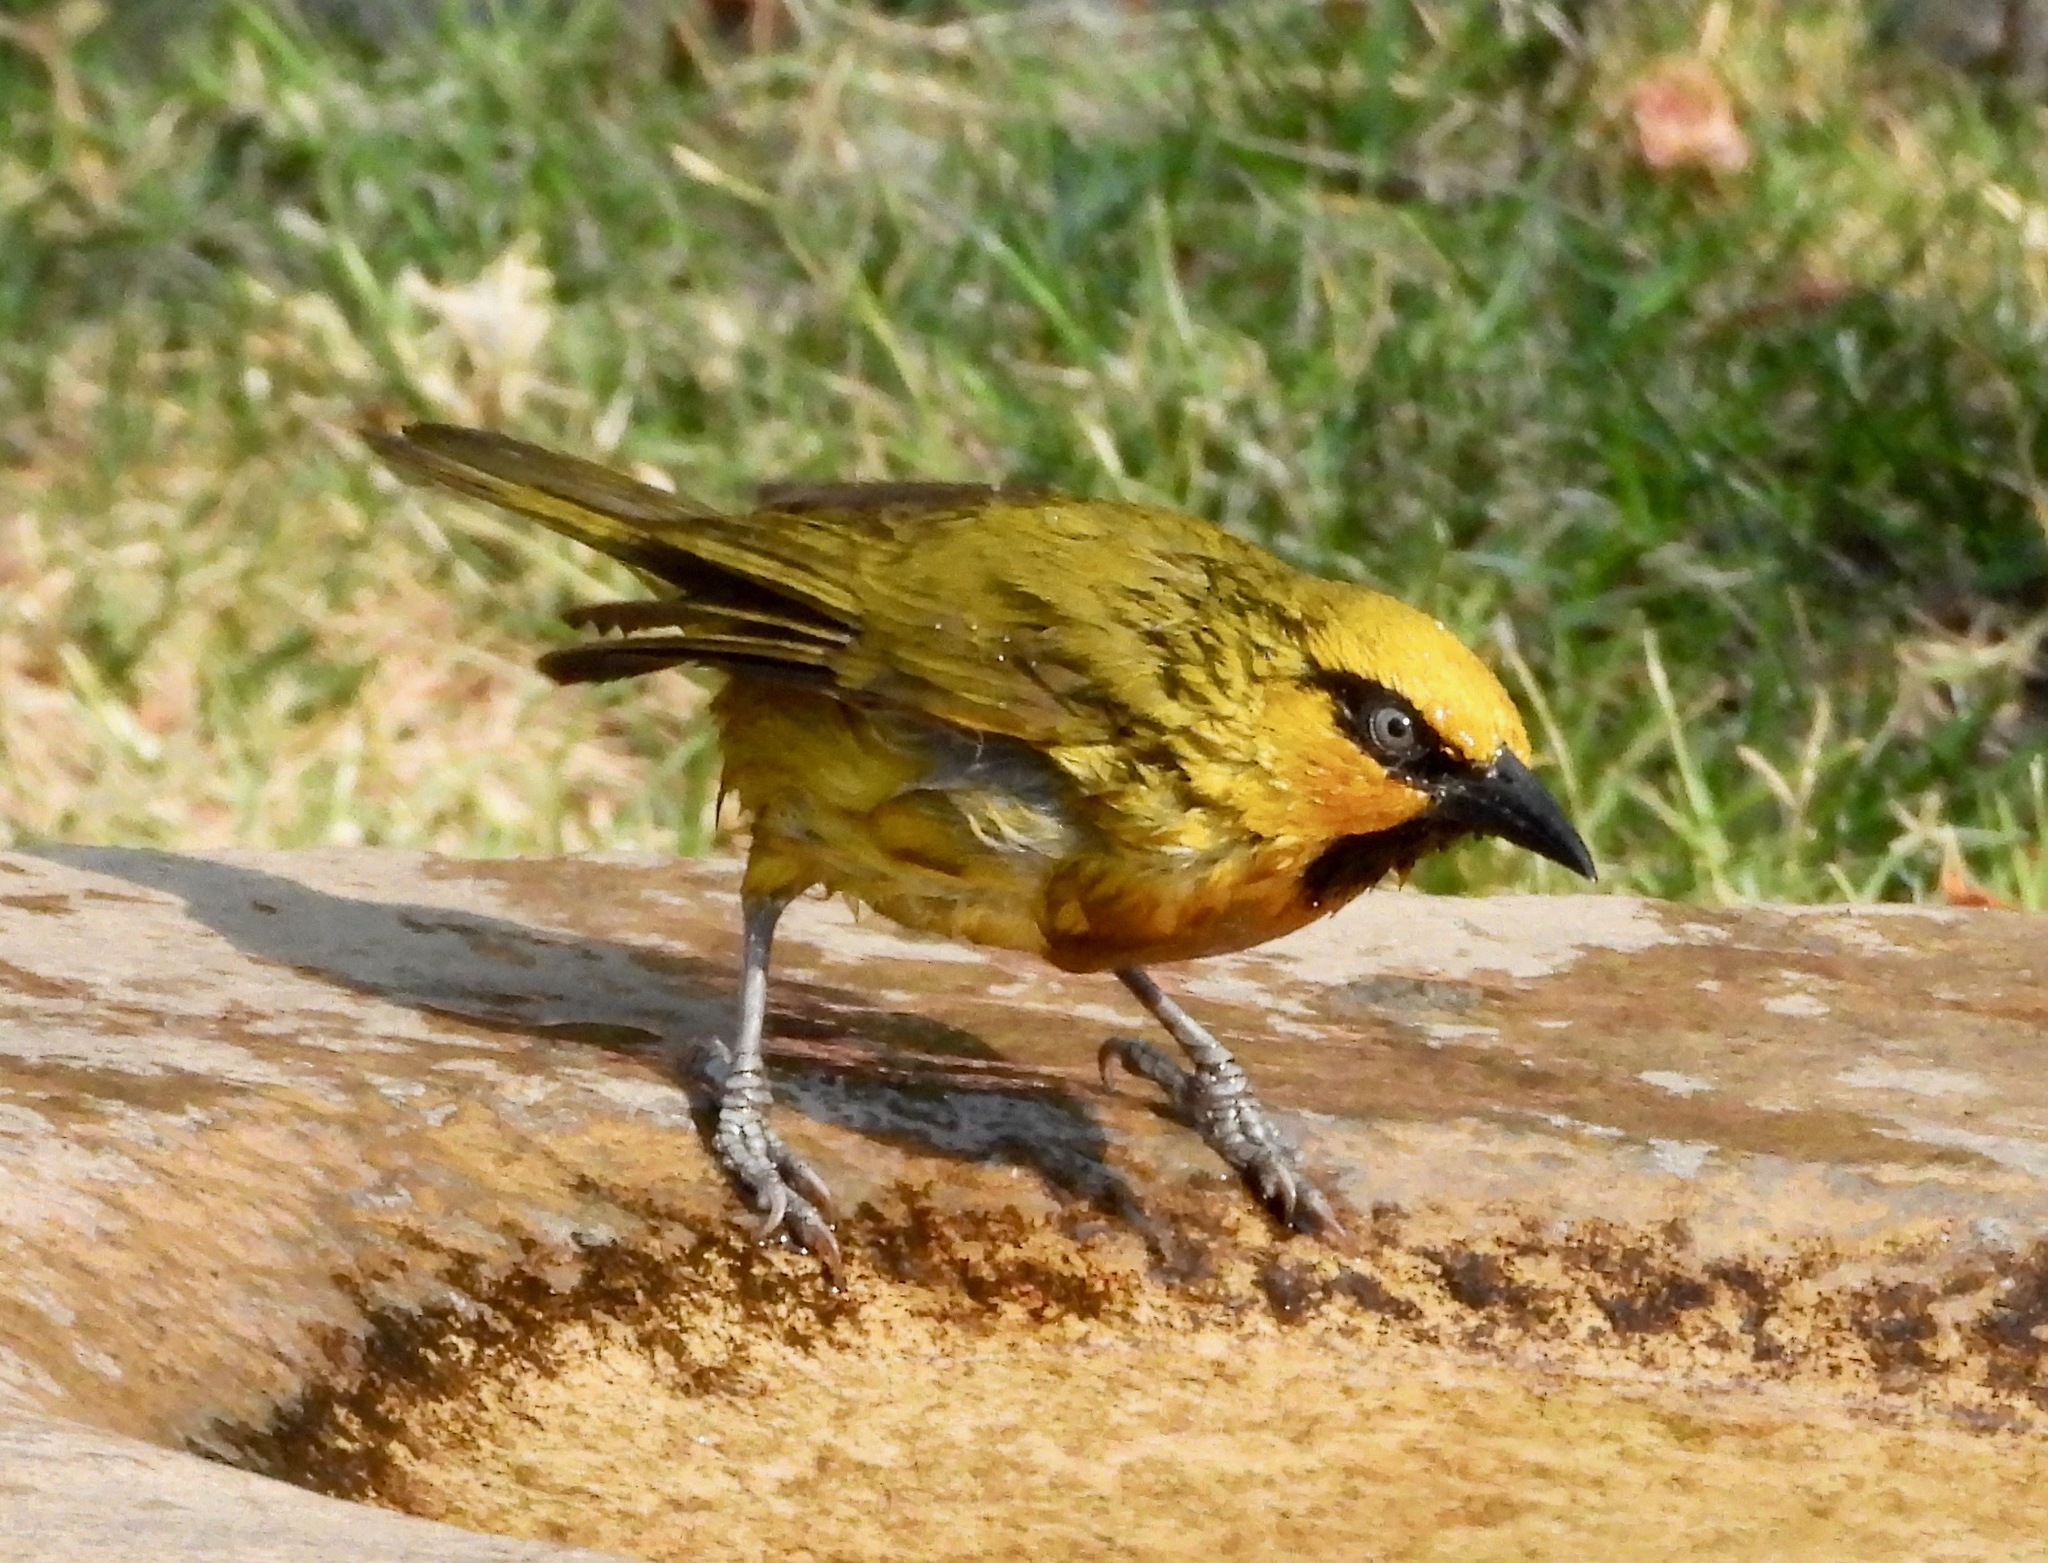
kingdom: Animalia
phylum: Chordata
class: Aves
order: Passeriformes
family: Ploceidae
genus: Ploceus
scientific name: Ploceus ocularis
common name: Spectacled weaver
